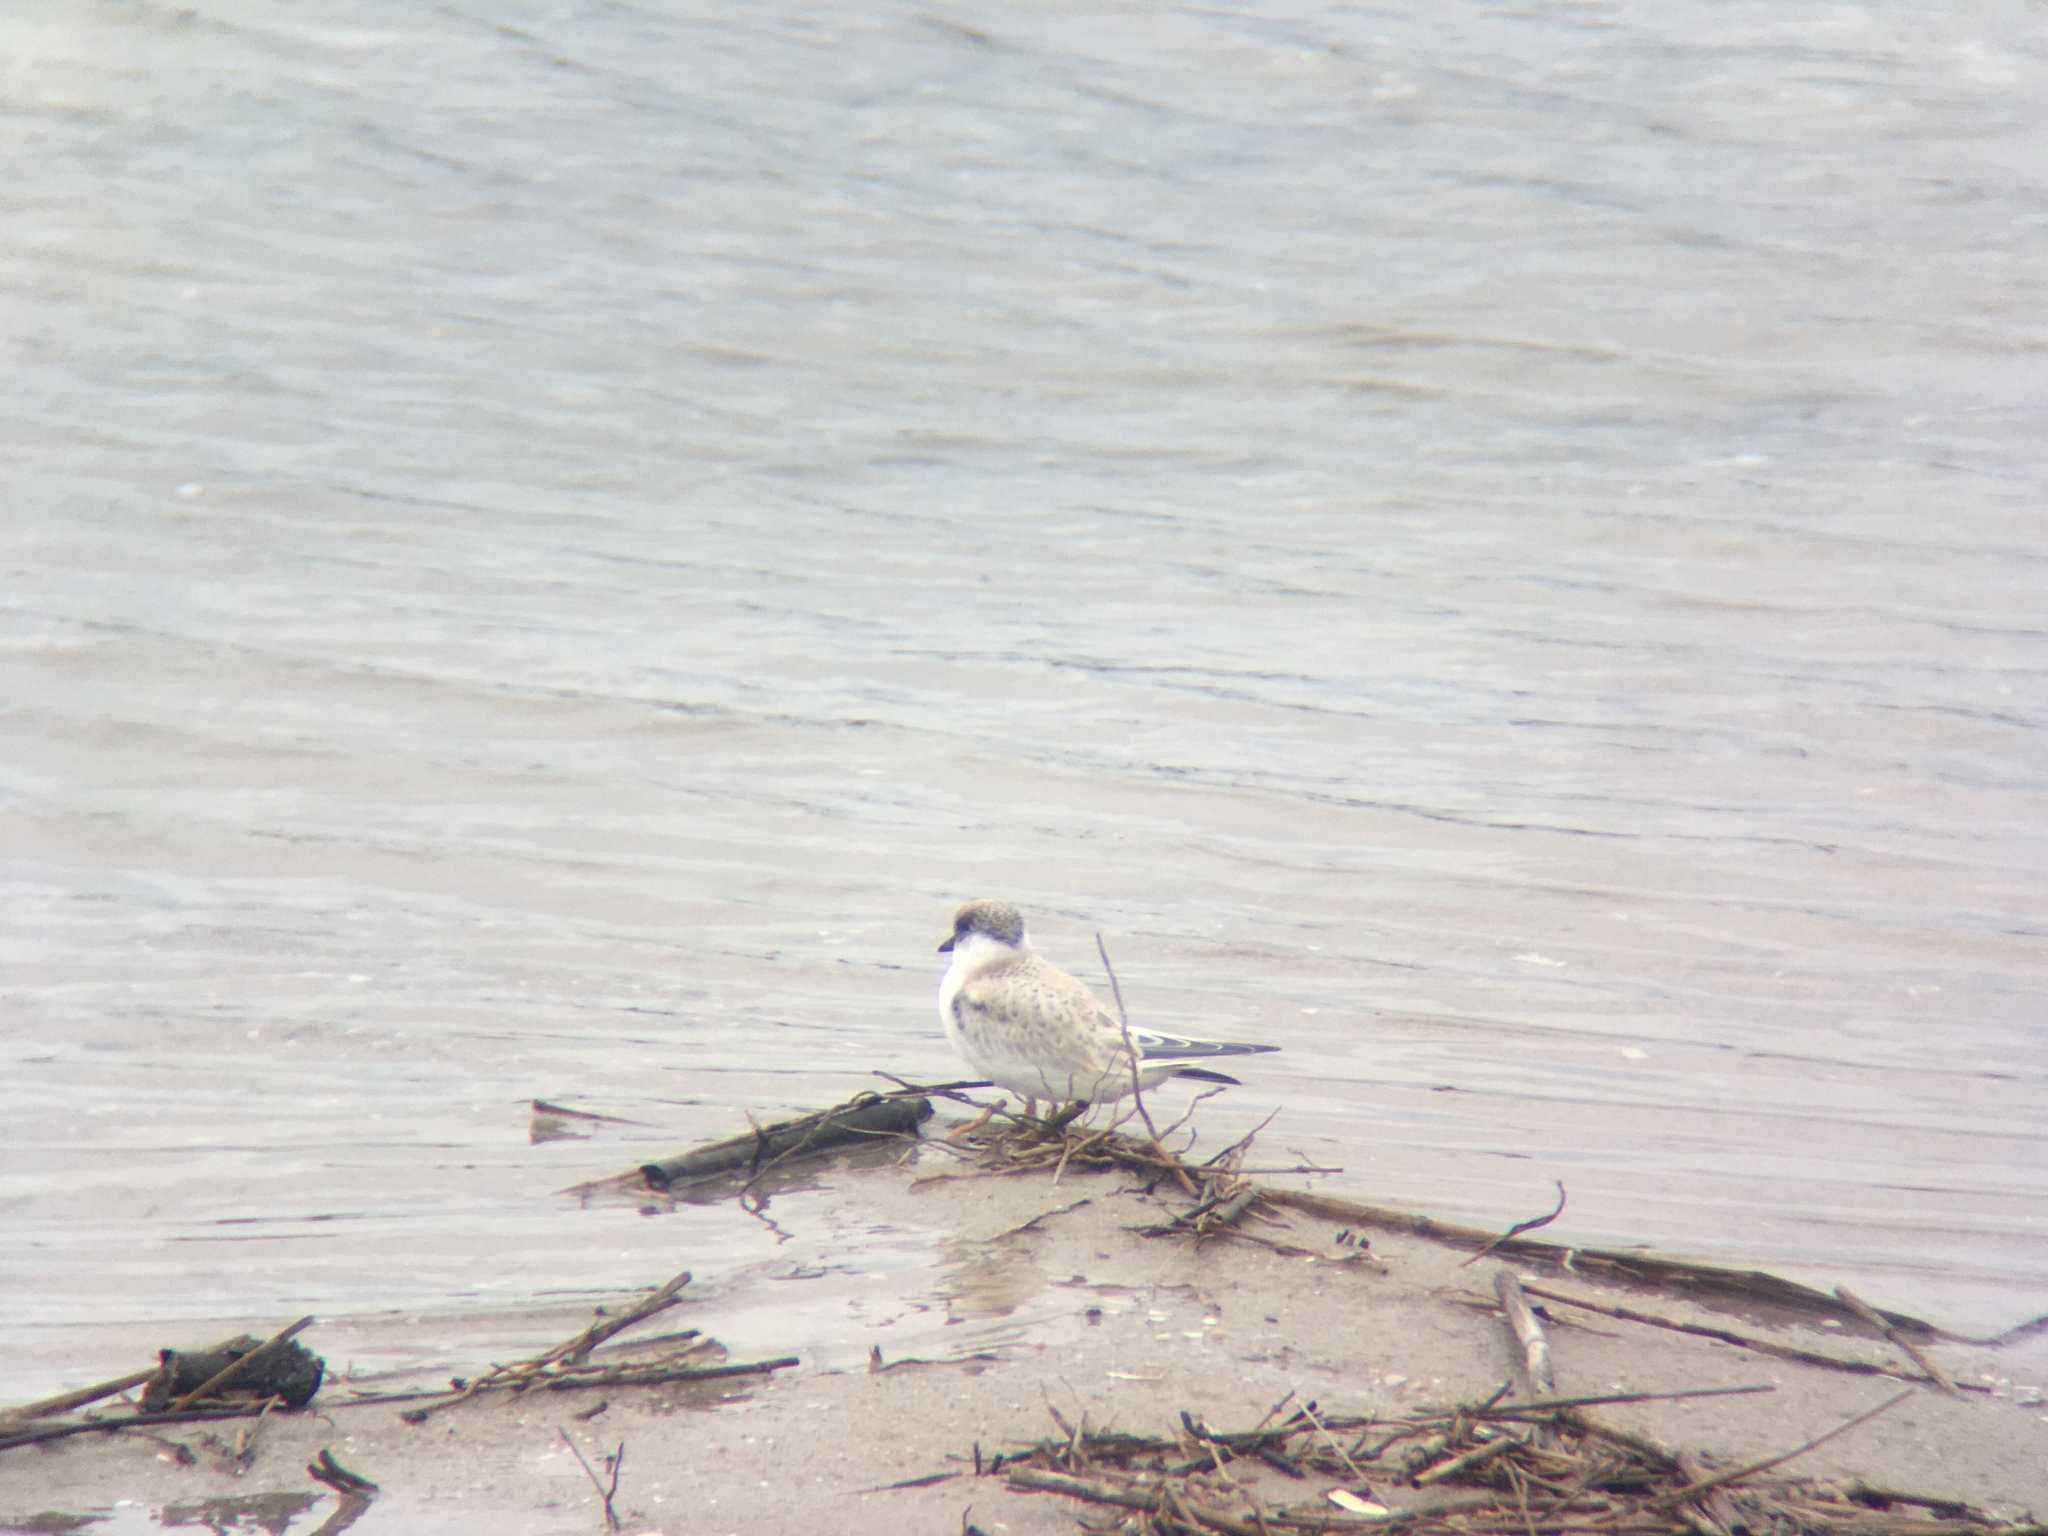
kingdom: Animalia
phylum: Chordata
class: Aves
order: Charadriiformes
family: Laridae
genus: Sterna
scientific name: Sterna hirundo
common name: Common tern
